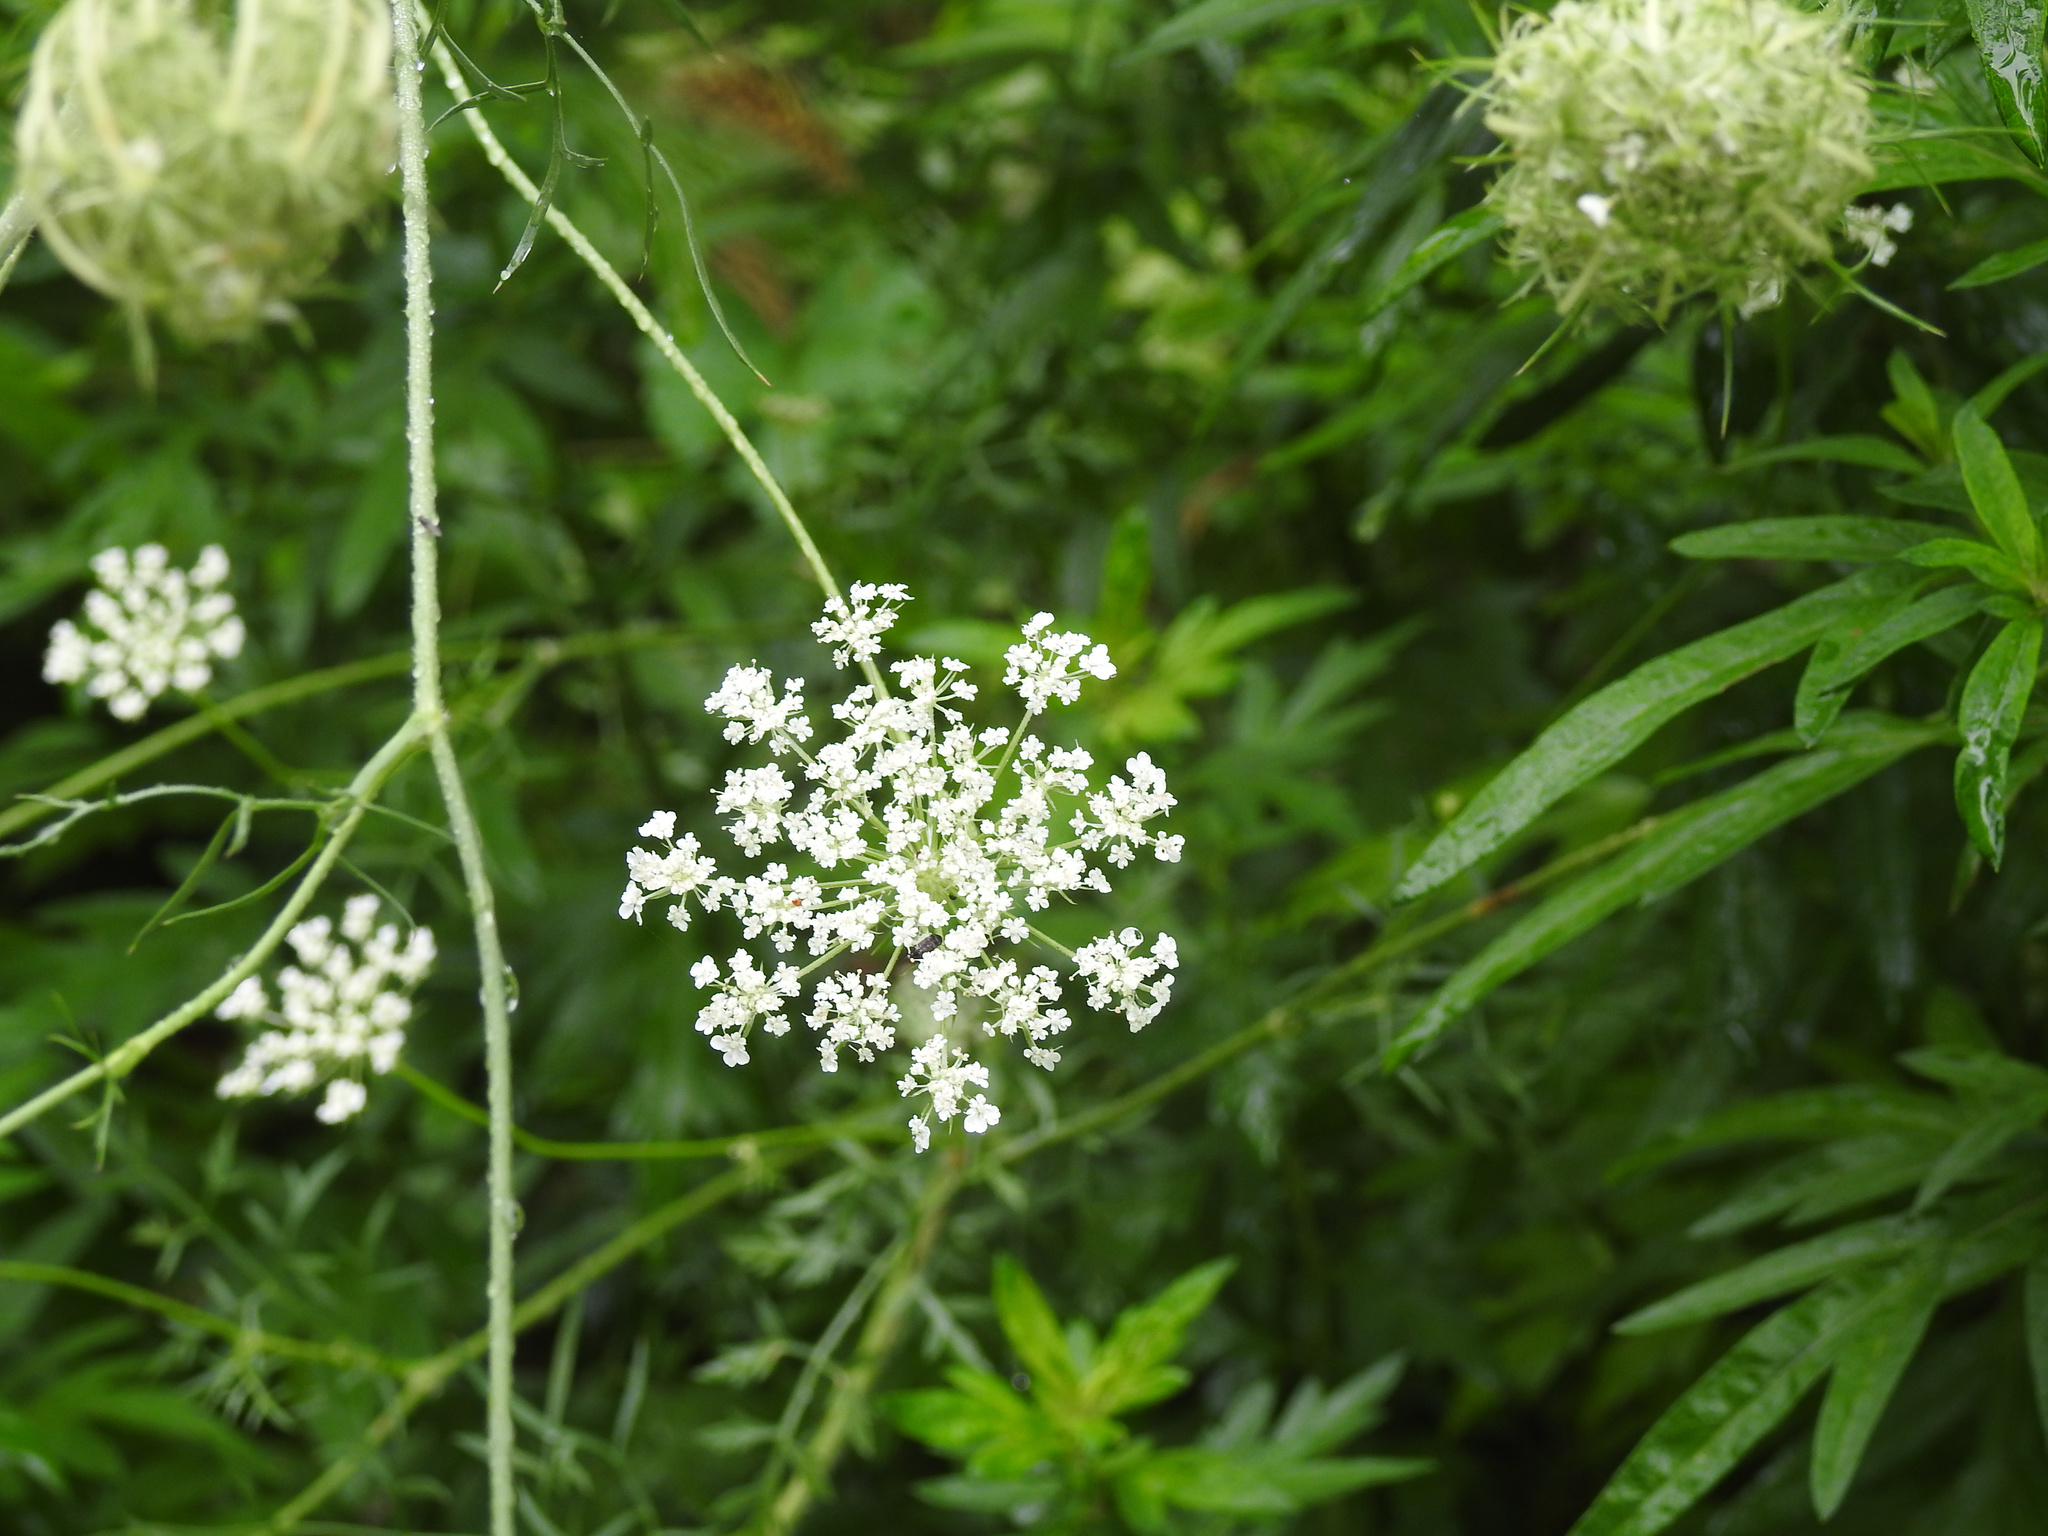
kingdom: Plantae
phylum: Tracheophyta
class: Magnoliopsida
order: Apiales
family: Apiaceae
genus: Daucus
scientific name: Daucus carota
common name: Wild carrot
